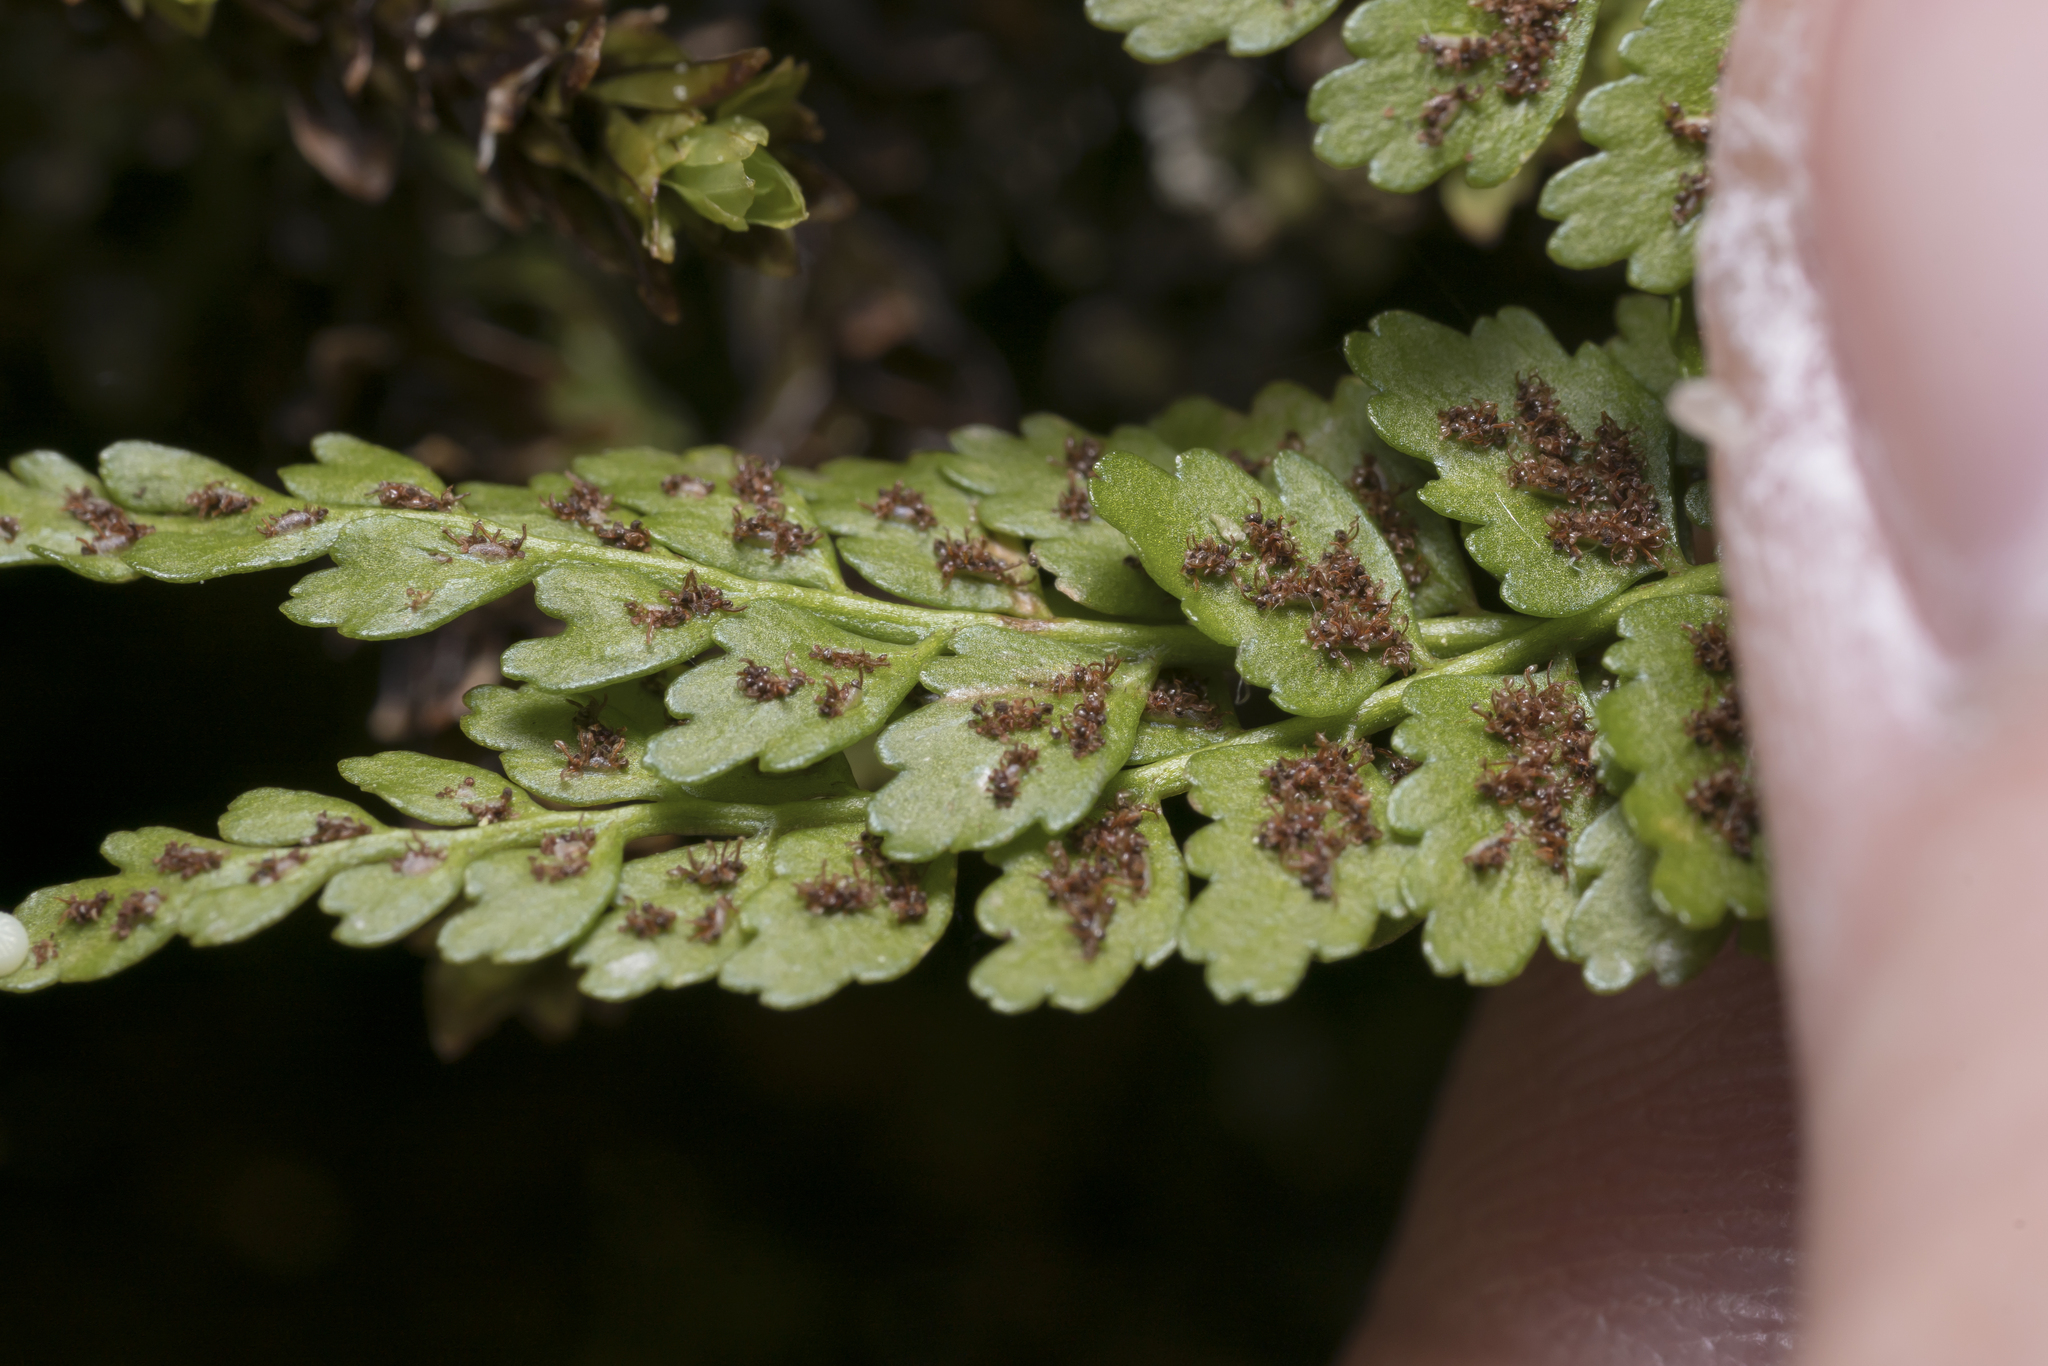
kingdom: Plantae
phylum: Tracheophyta
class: Polypodiopsida
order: Polypodiales
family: Aspleniaceae
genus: Asplenium
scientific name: Asplenium viride
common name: Green spleenwort
